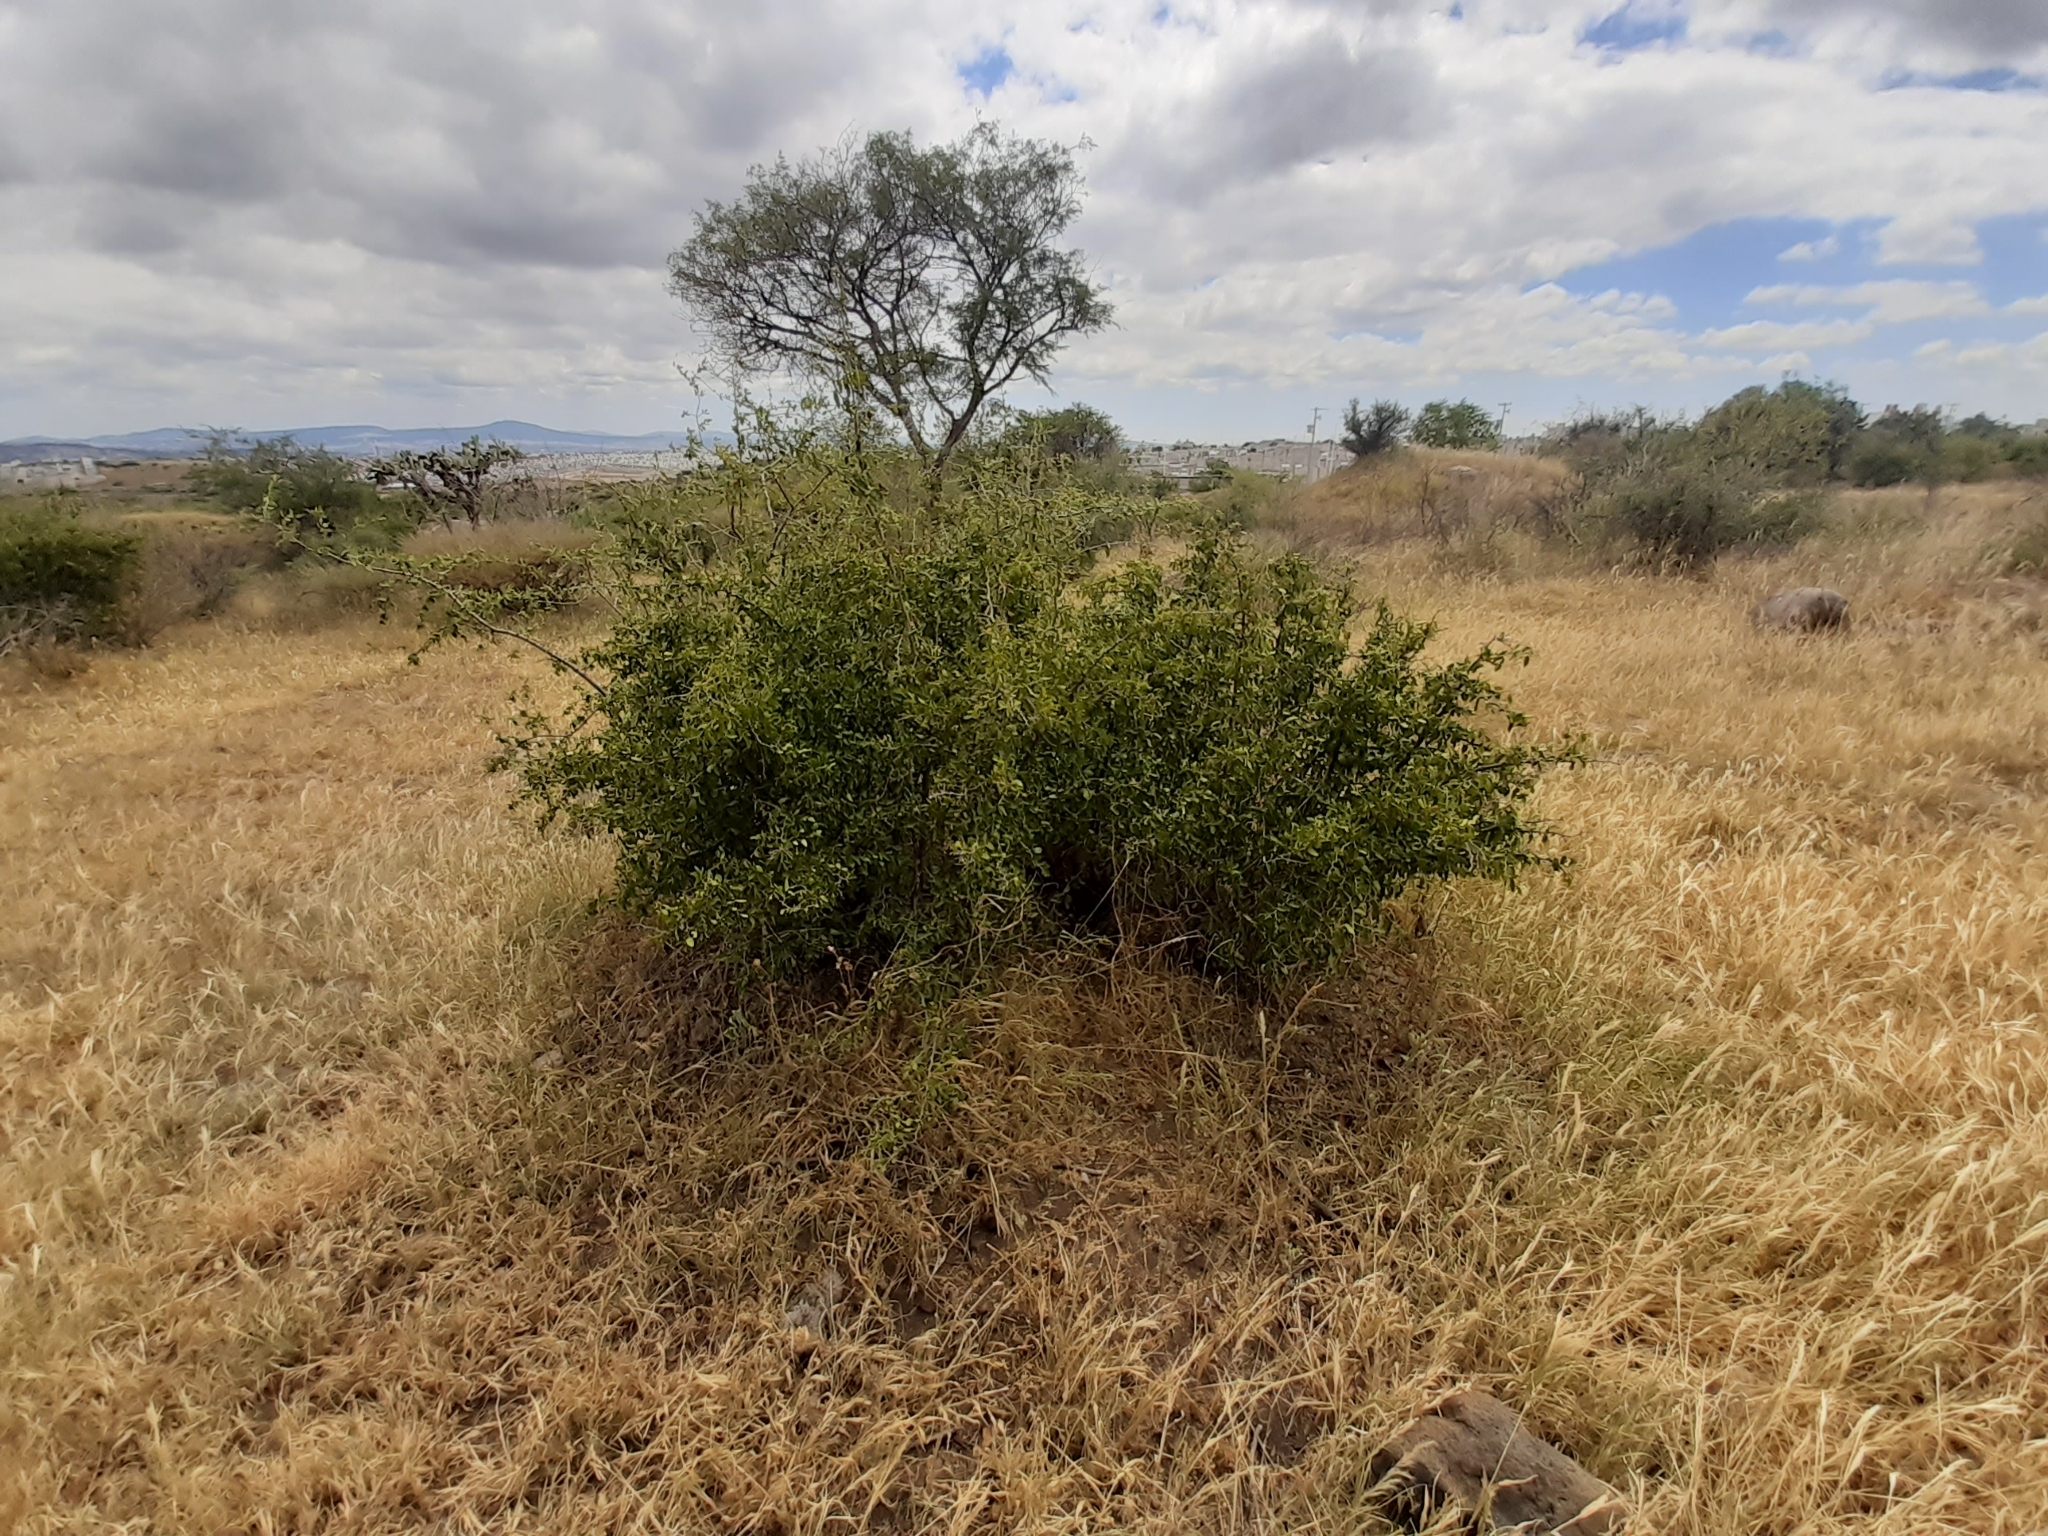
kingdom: Plantae
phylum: Tracheophyta
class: Magnoliopsida
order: Rosales
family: Cannabaceae
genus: Celtis
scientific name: Celtis pallida
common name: Desert hackberry
